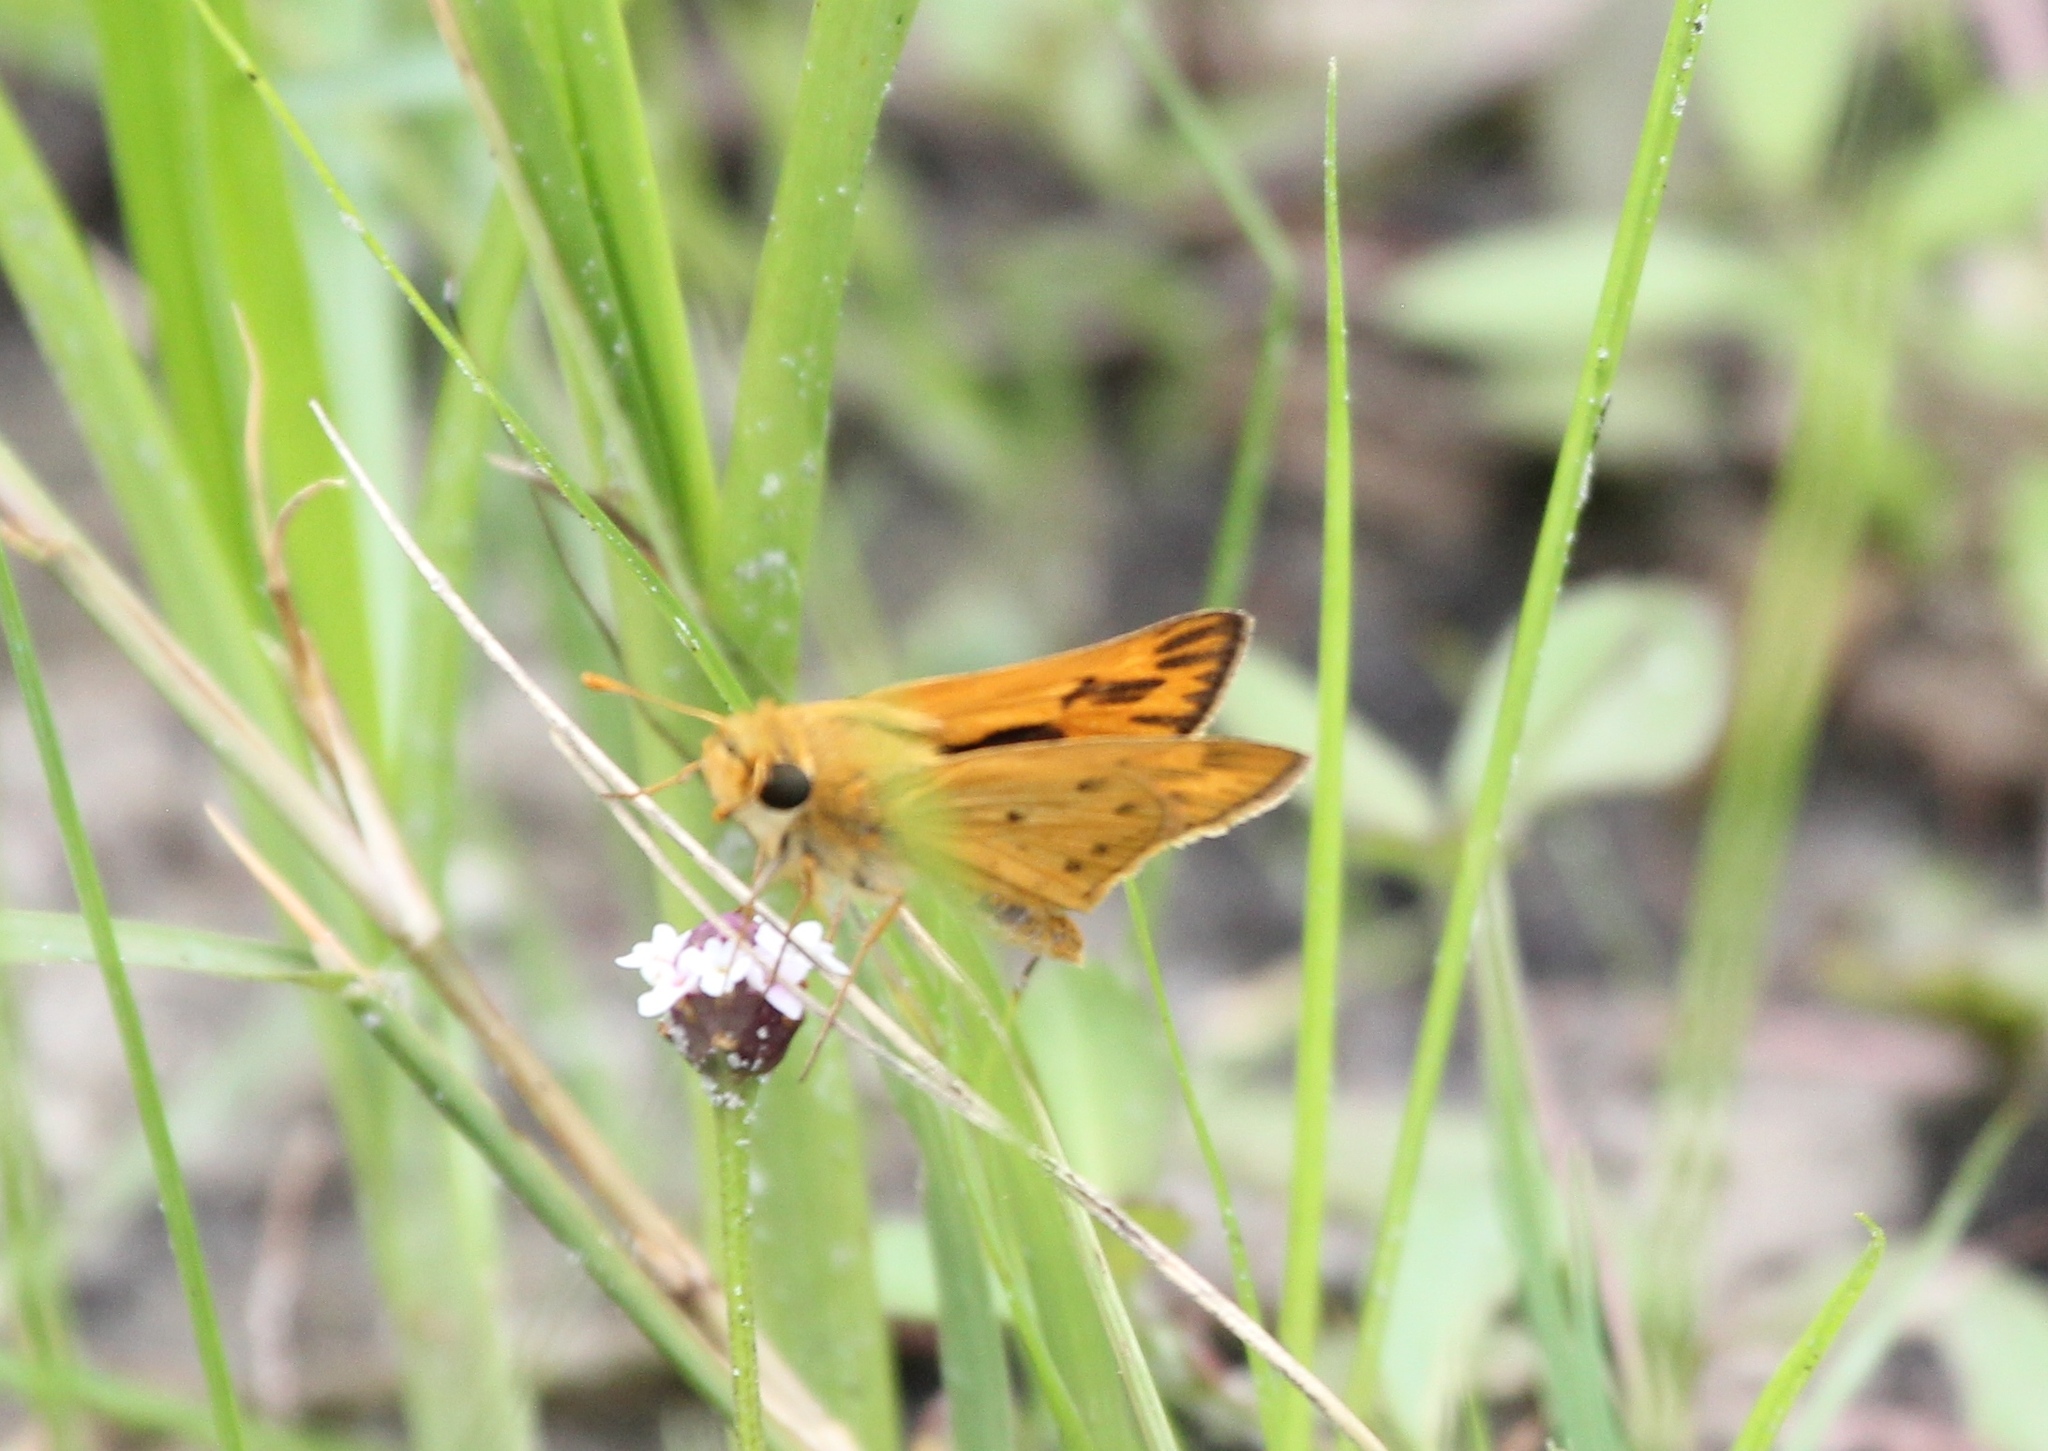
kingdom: Animalia
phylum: Arthropoda
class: Insecta
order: Lepidoptera
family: Hesperiidae
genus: Hylephila
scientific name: Hylephila phyleus
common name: Fiery skipper
